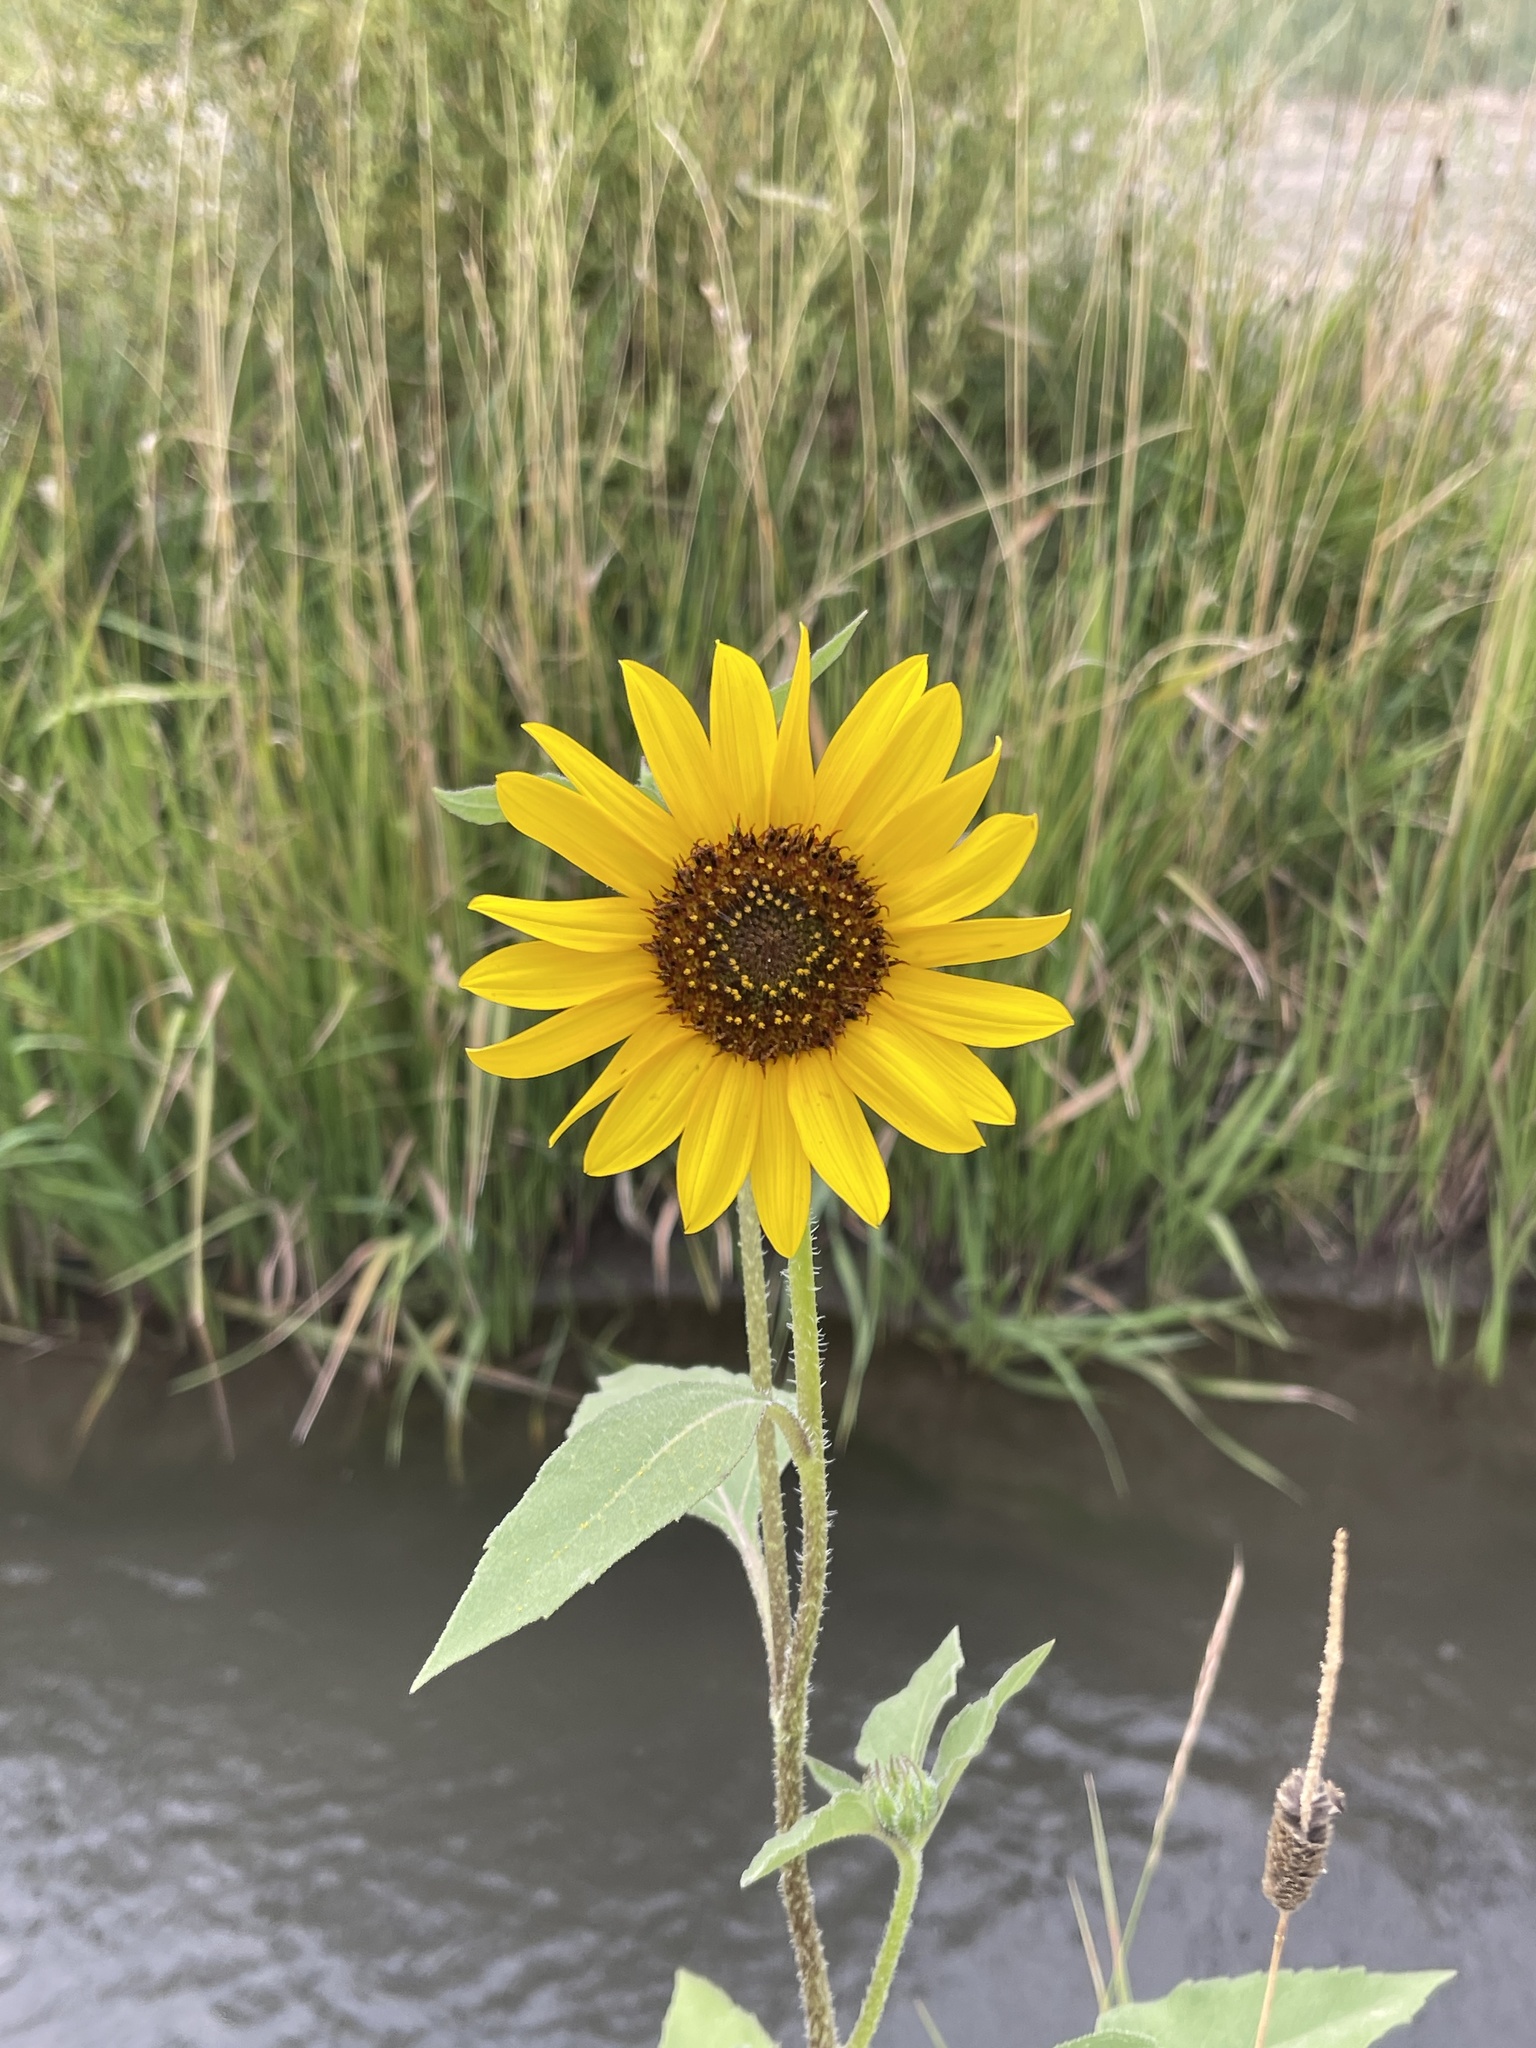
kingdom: Plantae
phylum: Tracheophyta
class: Magnoliopsida
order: Asterales
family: Asteraceae
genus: Helianthus
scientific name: Helianthus annuus
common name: Sunflower
